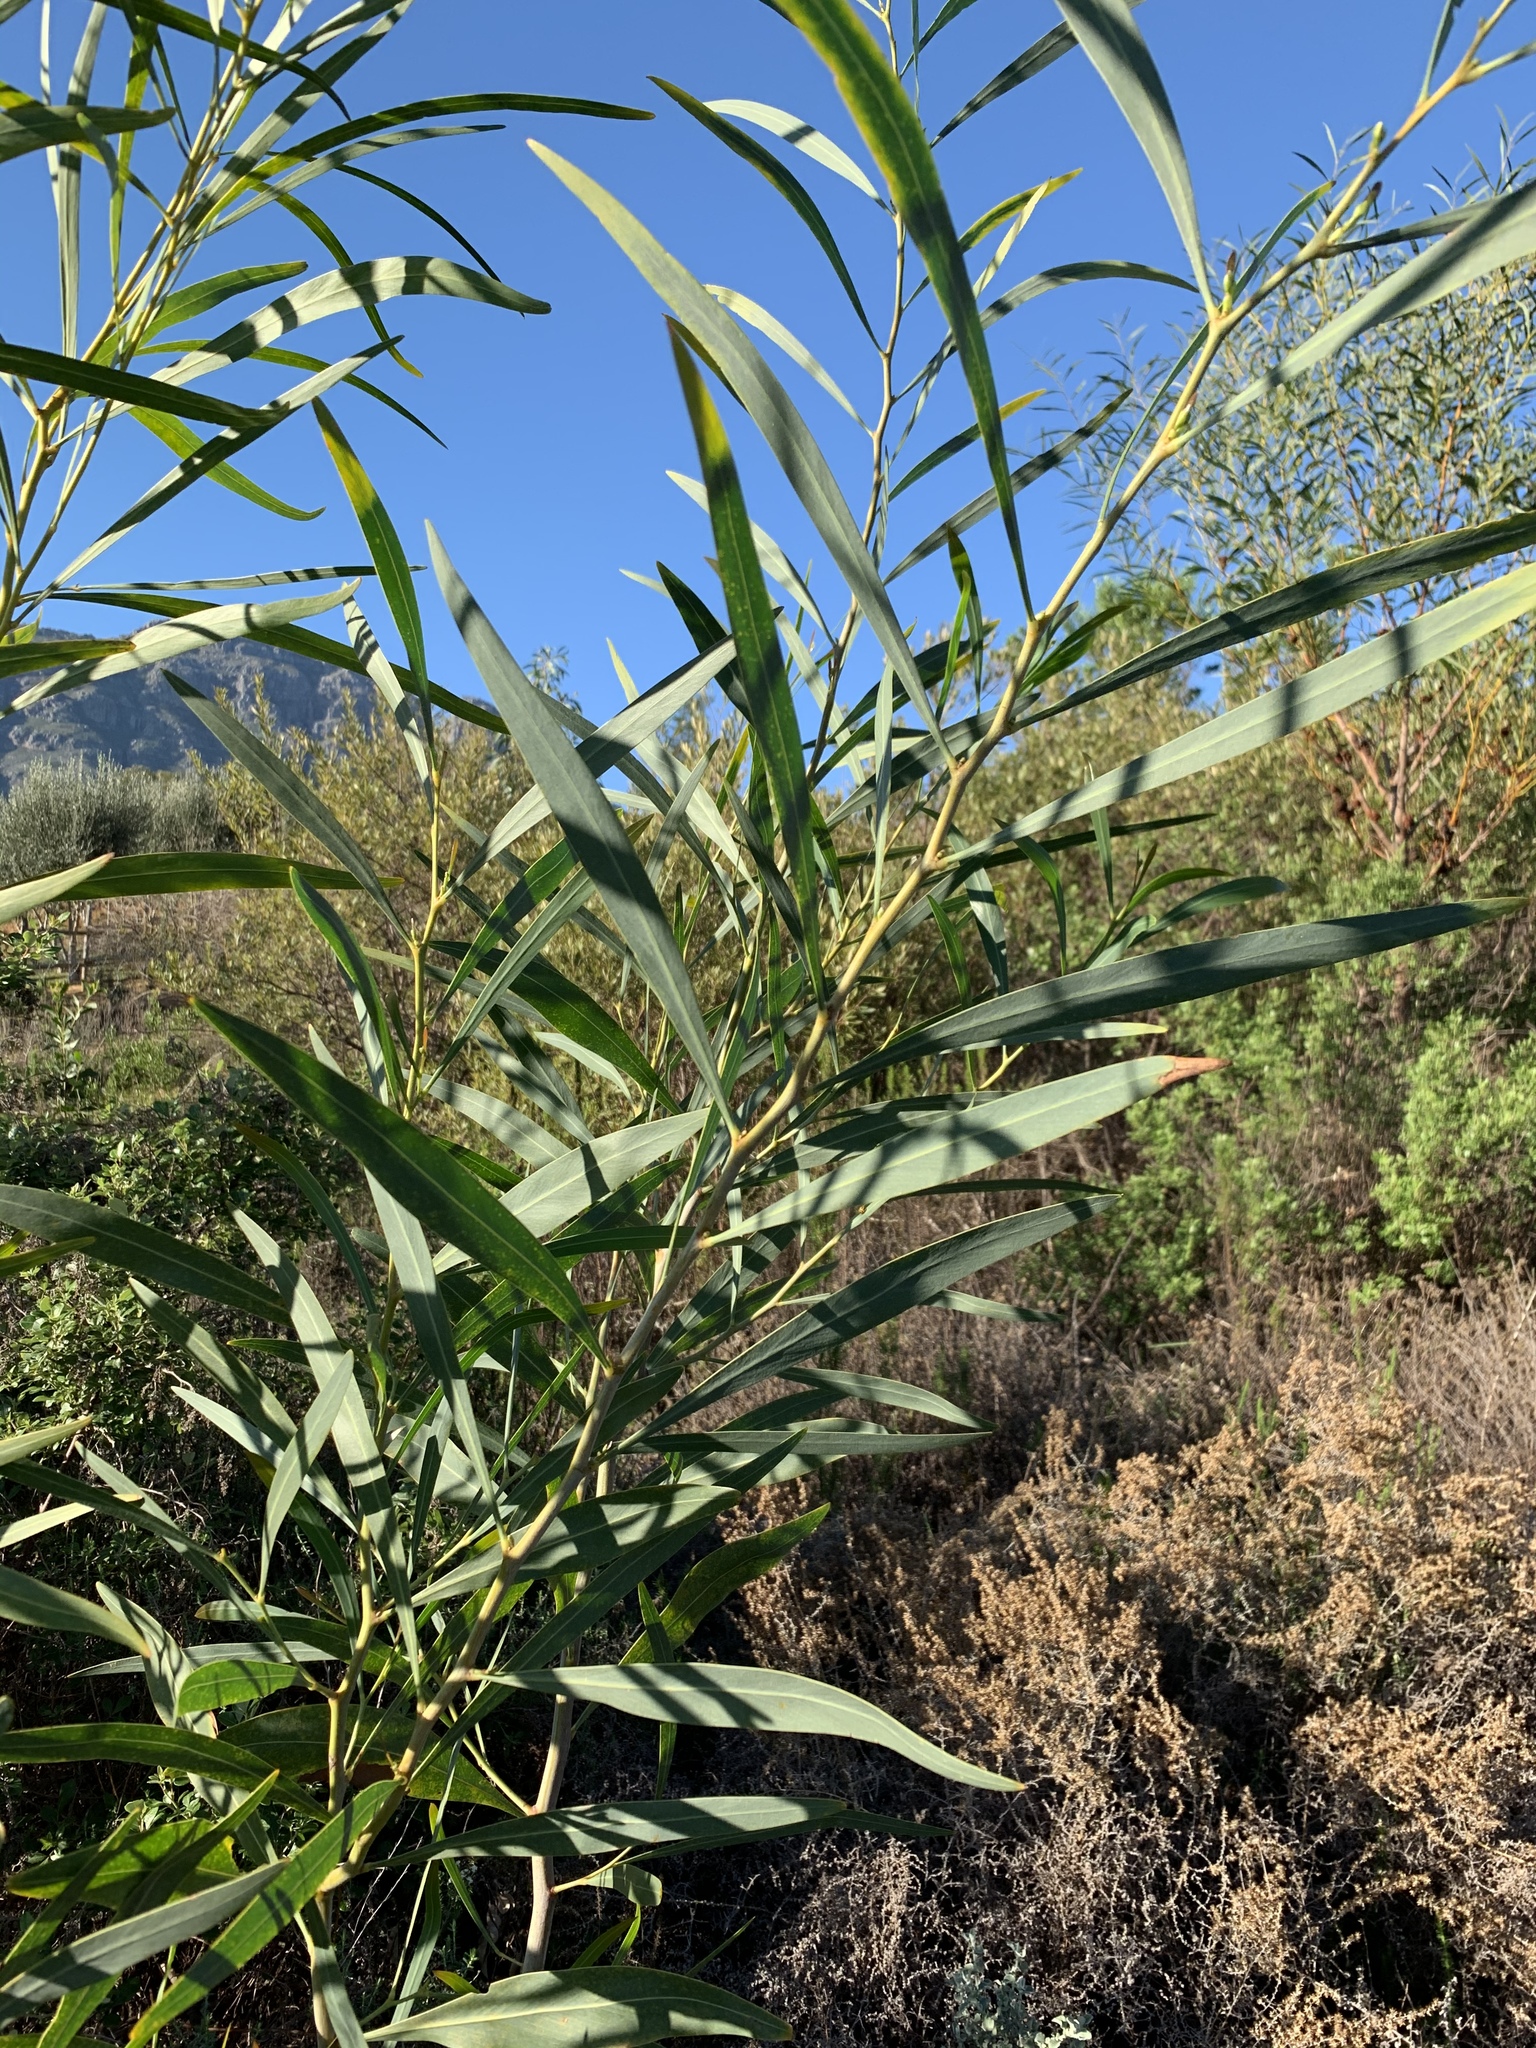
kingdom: Plantae
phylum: Tracheophyta
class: Magnoliopsida
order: Fabales
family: Fabaceae
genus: Acacia
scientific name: Acacia saligna
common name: Orange wattle
